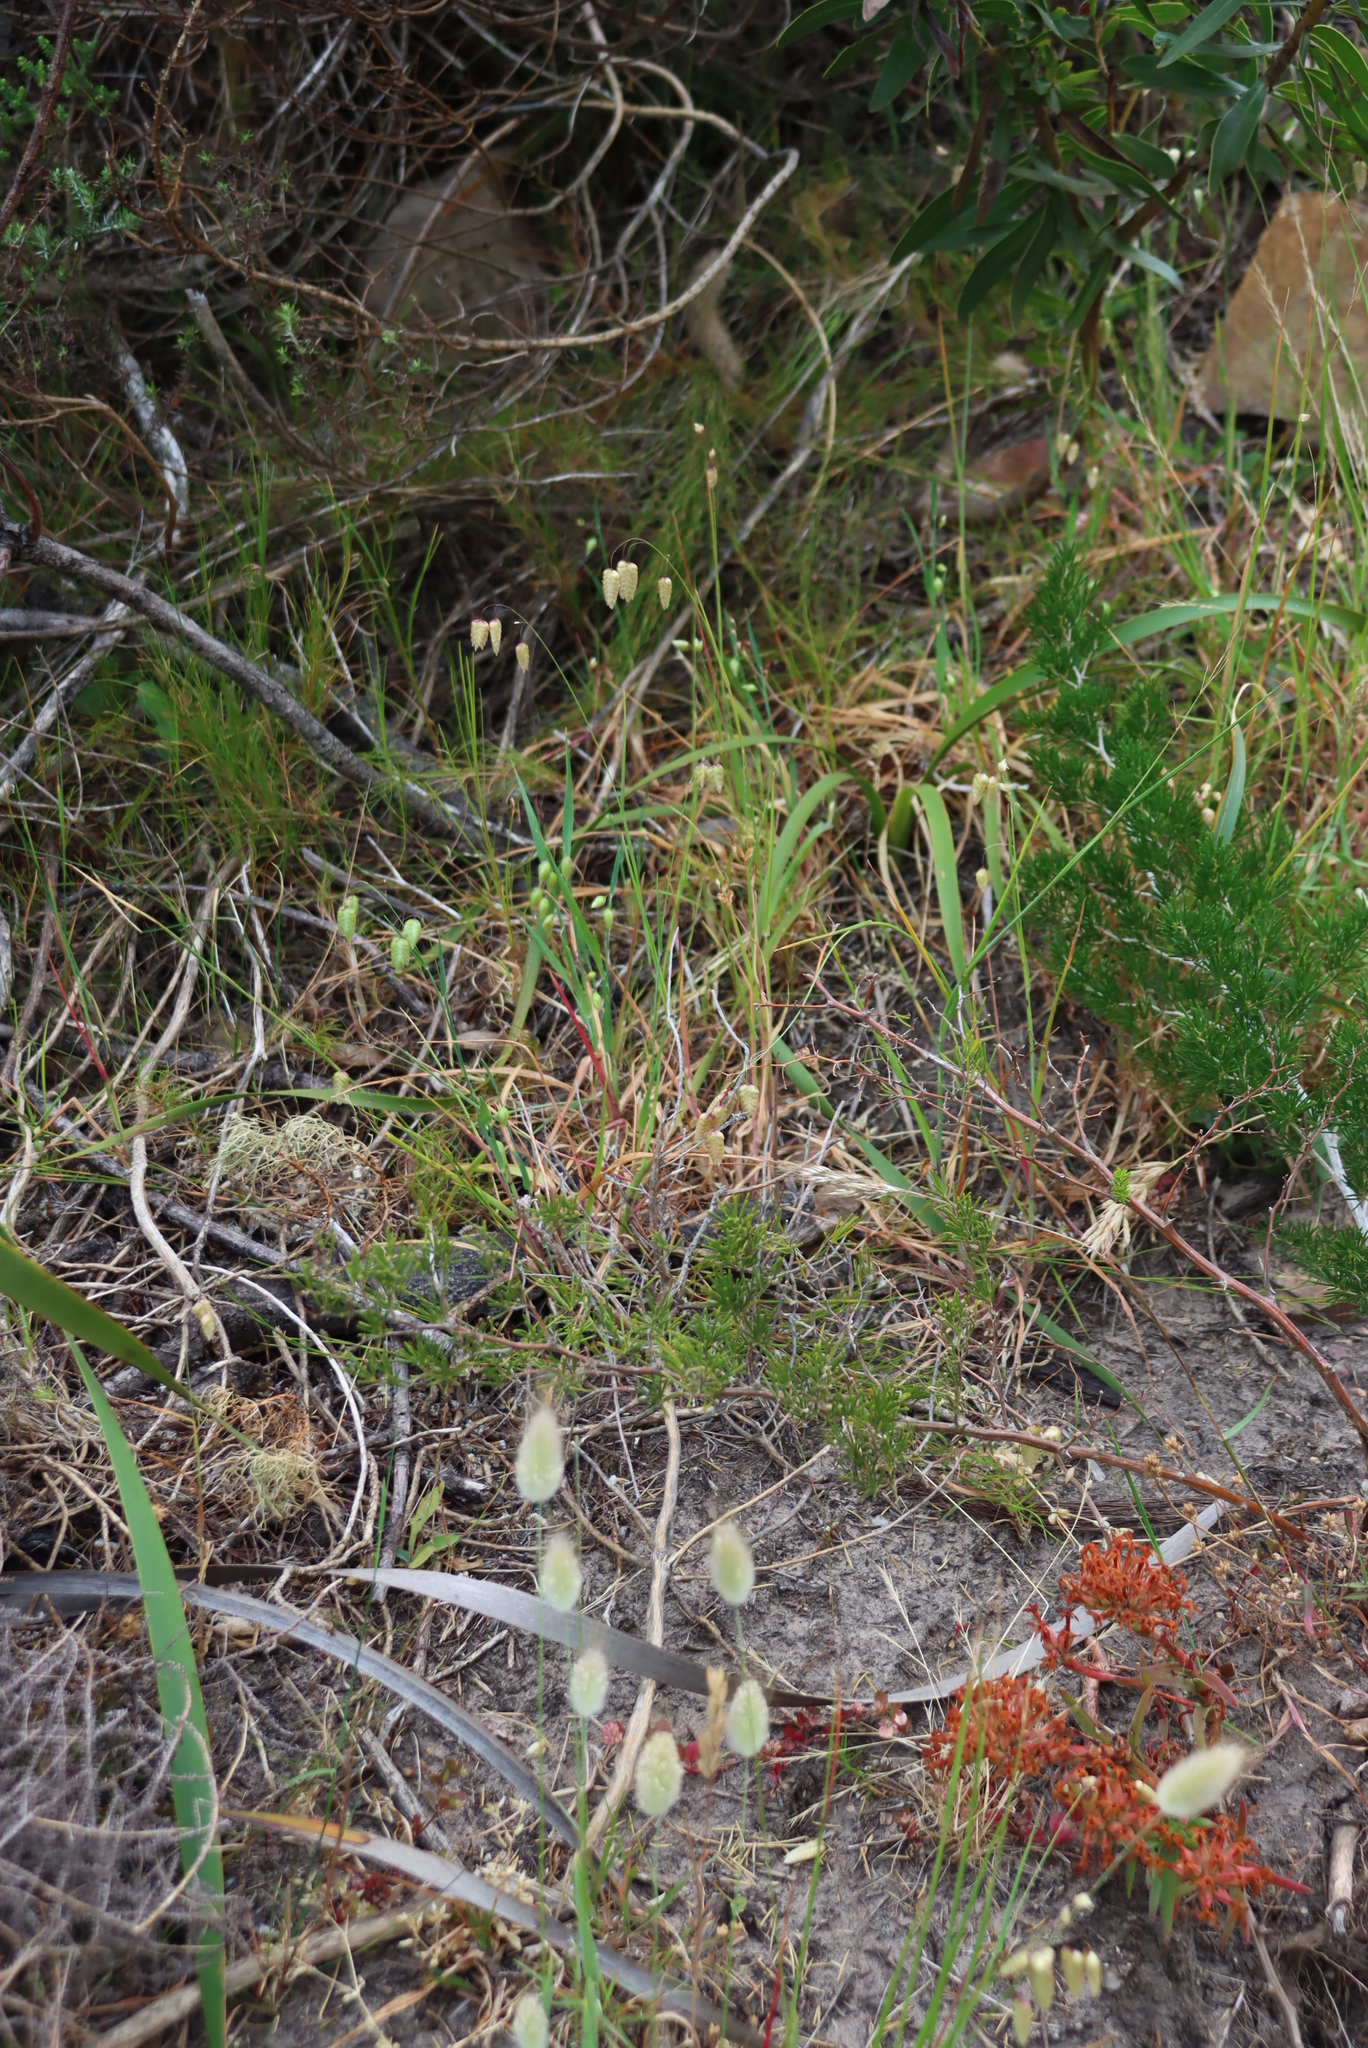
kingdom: Plantae
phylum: Tracheophyta
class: Liliopsida
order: Poales
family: Poaceae
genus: Briza
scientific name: Briza maxima
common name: Big quakinggrass
